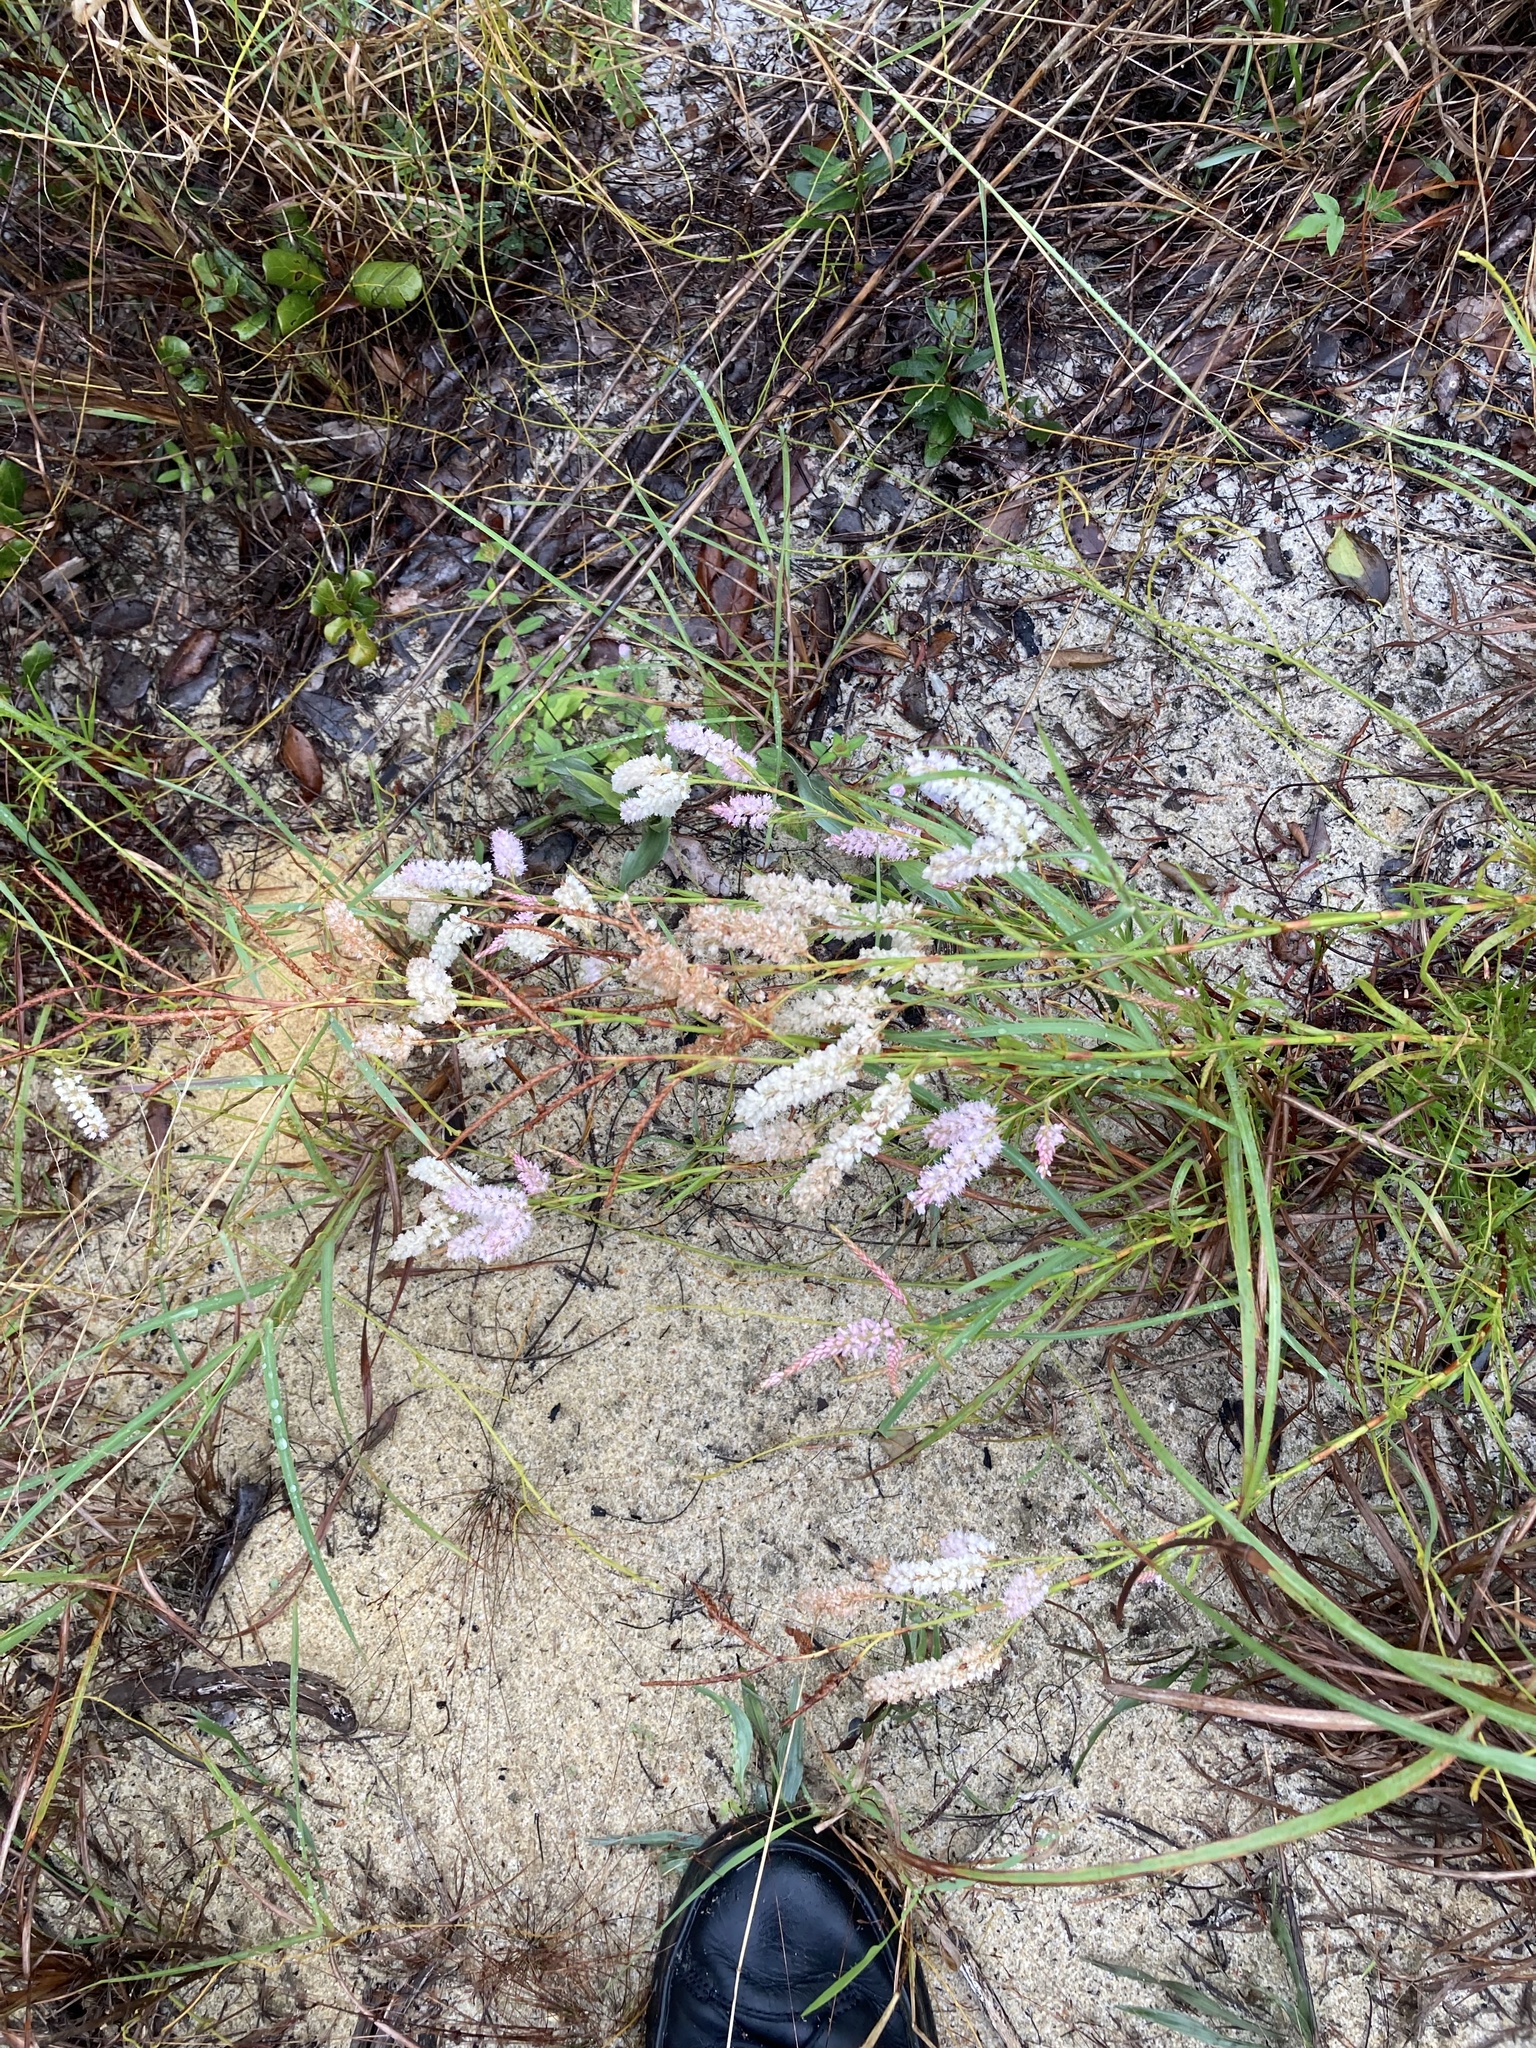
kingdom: Plantae
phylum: Tracheophyta
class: Magnoliopsida
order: Caryophyllales
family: Polygonaceae
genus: Polygonella
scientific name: Polygonella robusta
